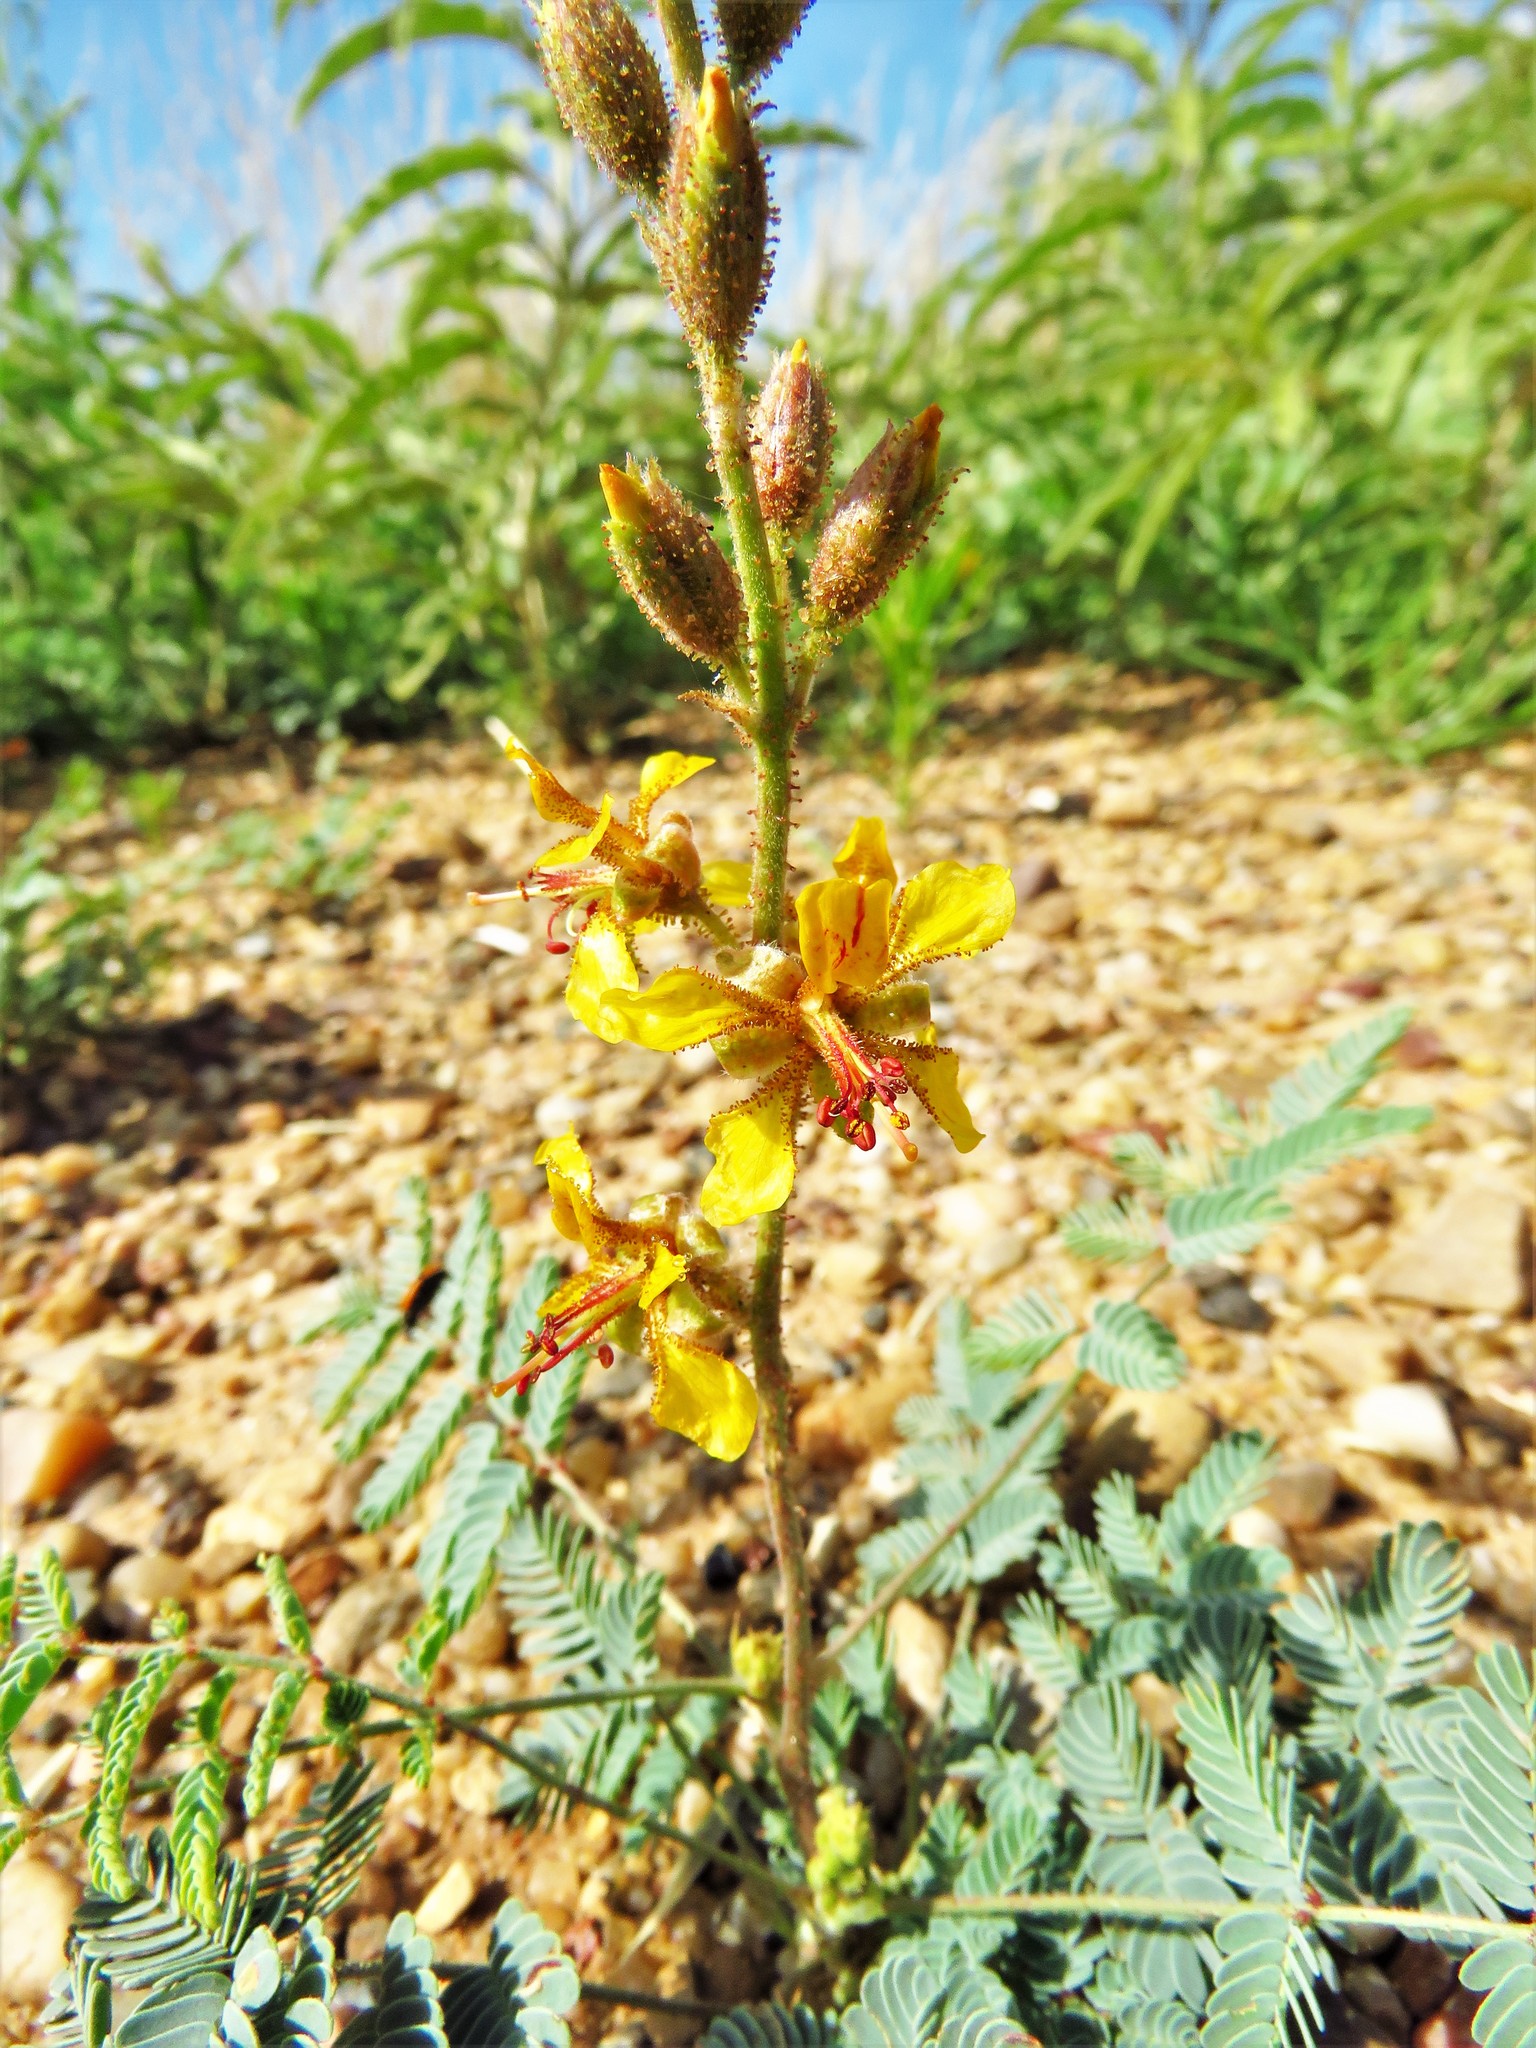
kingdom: Plantae
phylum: Tracheophyta
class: Magnoliopsida
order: Fabales
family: Fabaceae
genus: Hoffmannseggia
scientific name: Hoffmannseggia glauca
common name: Pignut
